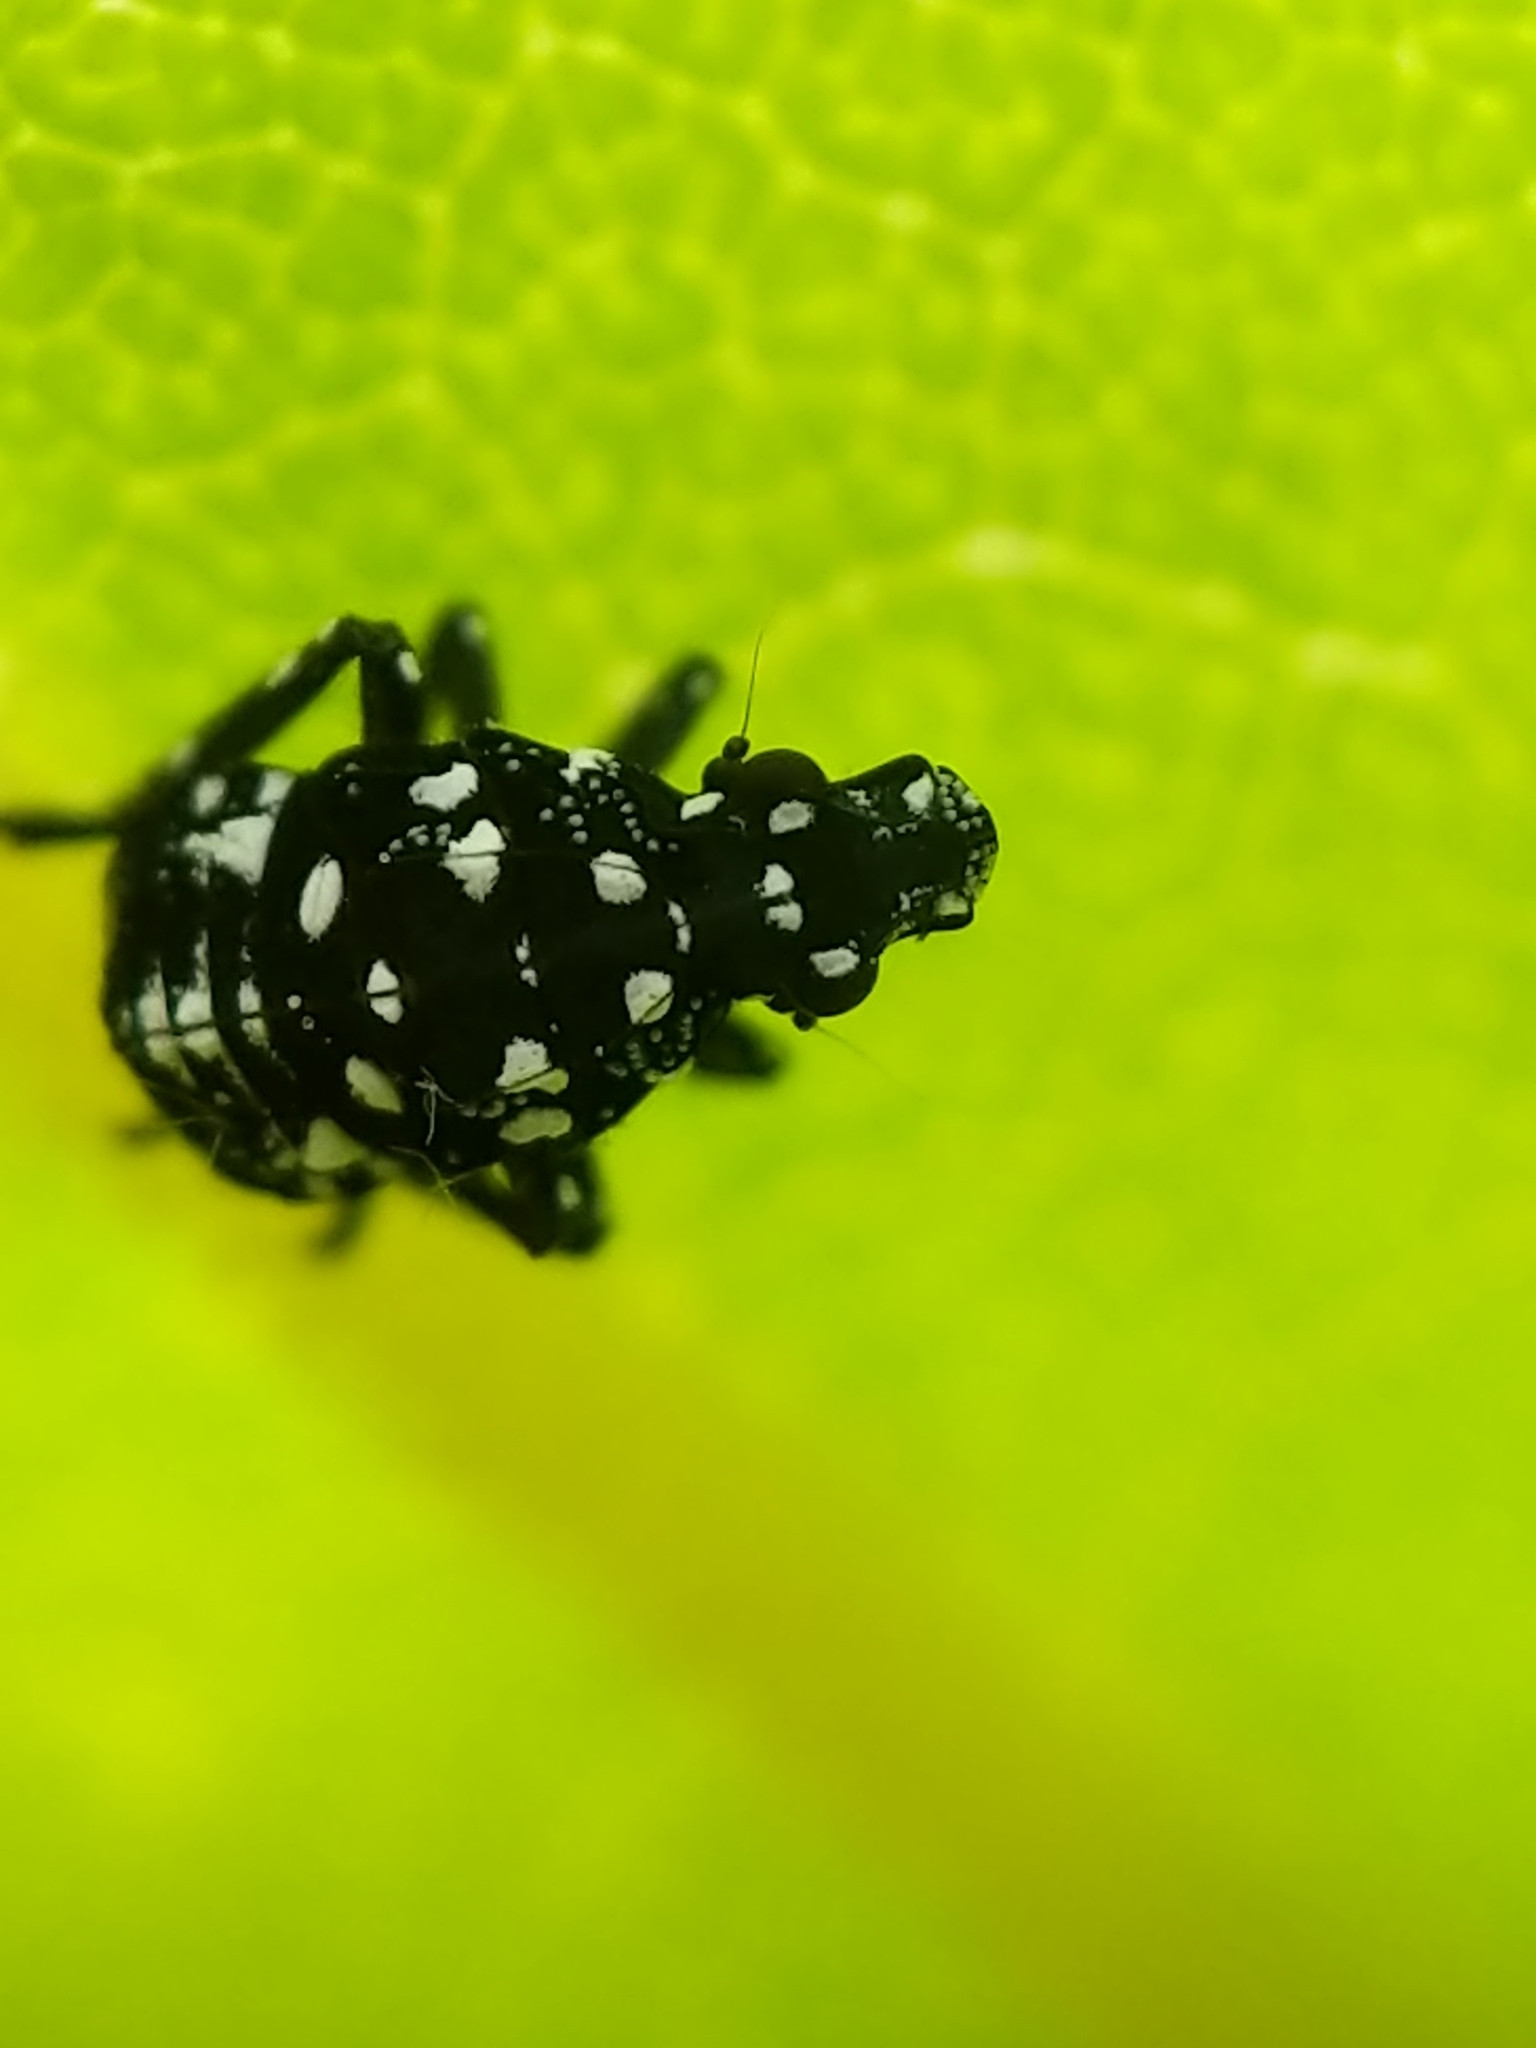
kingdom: Animalia
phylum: Arthropoda
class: Insecta
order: Hemiptera
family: Fulgoridae
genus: Lycorma
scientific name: Lycorma delicatula
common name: Spotted lanternfly
